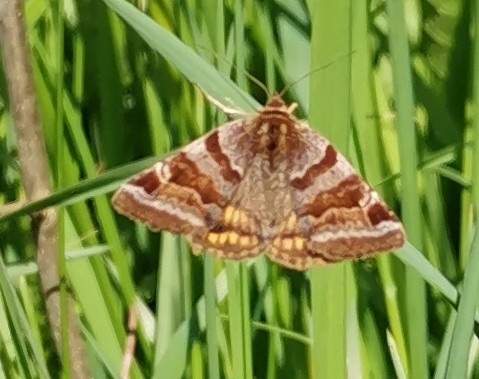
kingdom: Animalia
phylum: Arthropoda
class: Insecta
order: Lepidoptera
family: Erebidae
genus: Euclidia
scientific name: Euclidia glyphica
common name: Burnet companion
